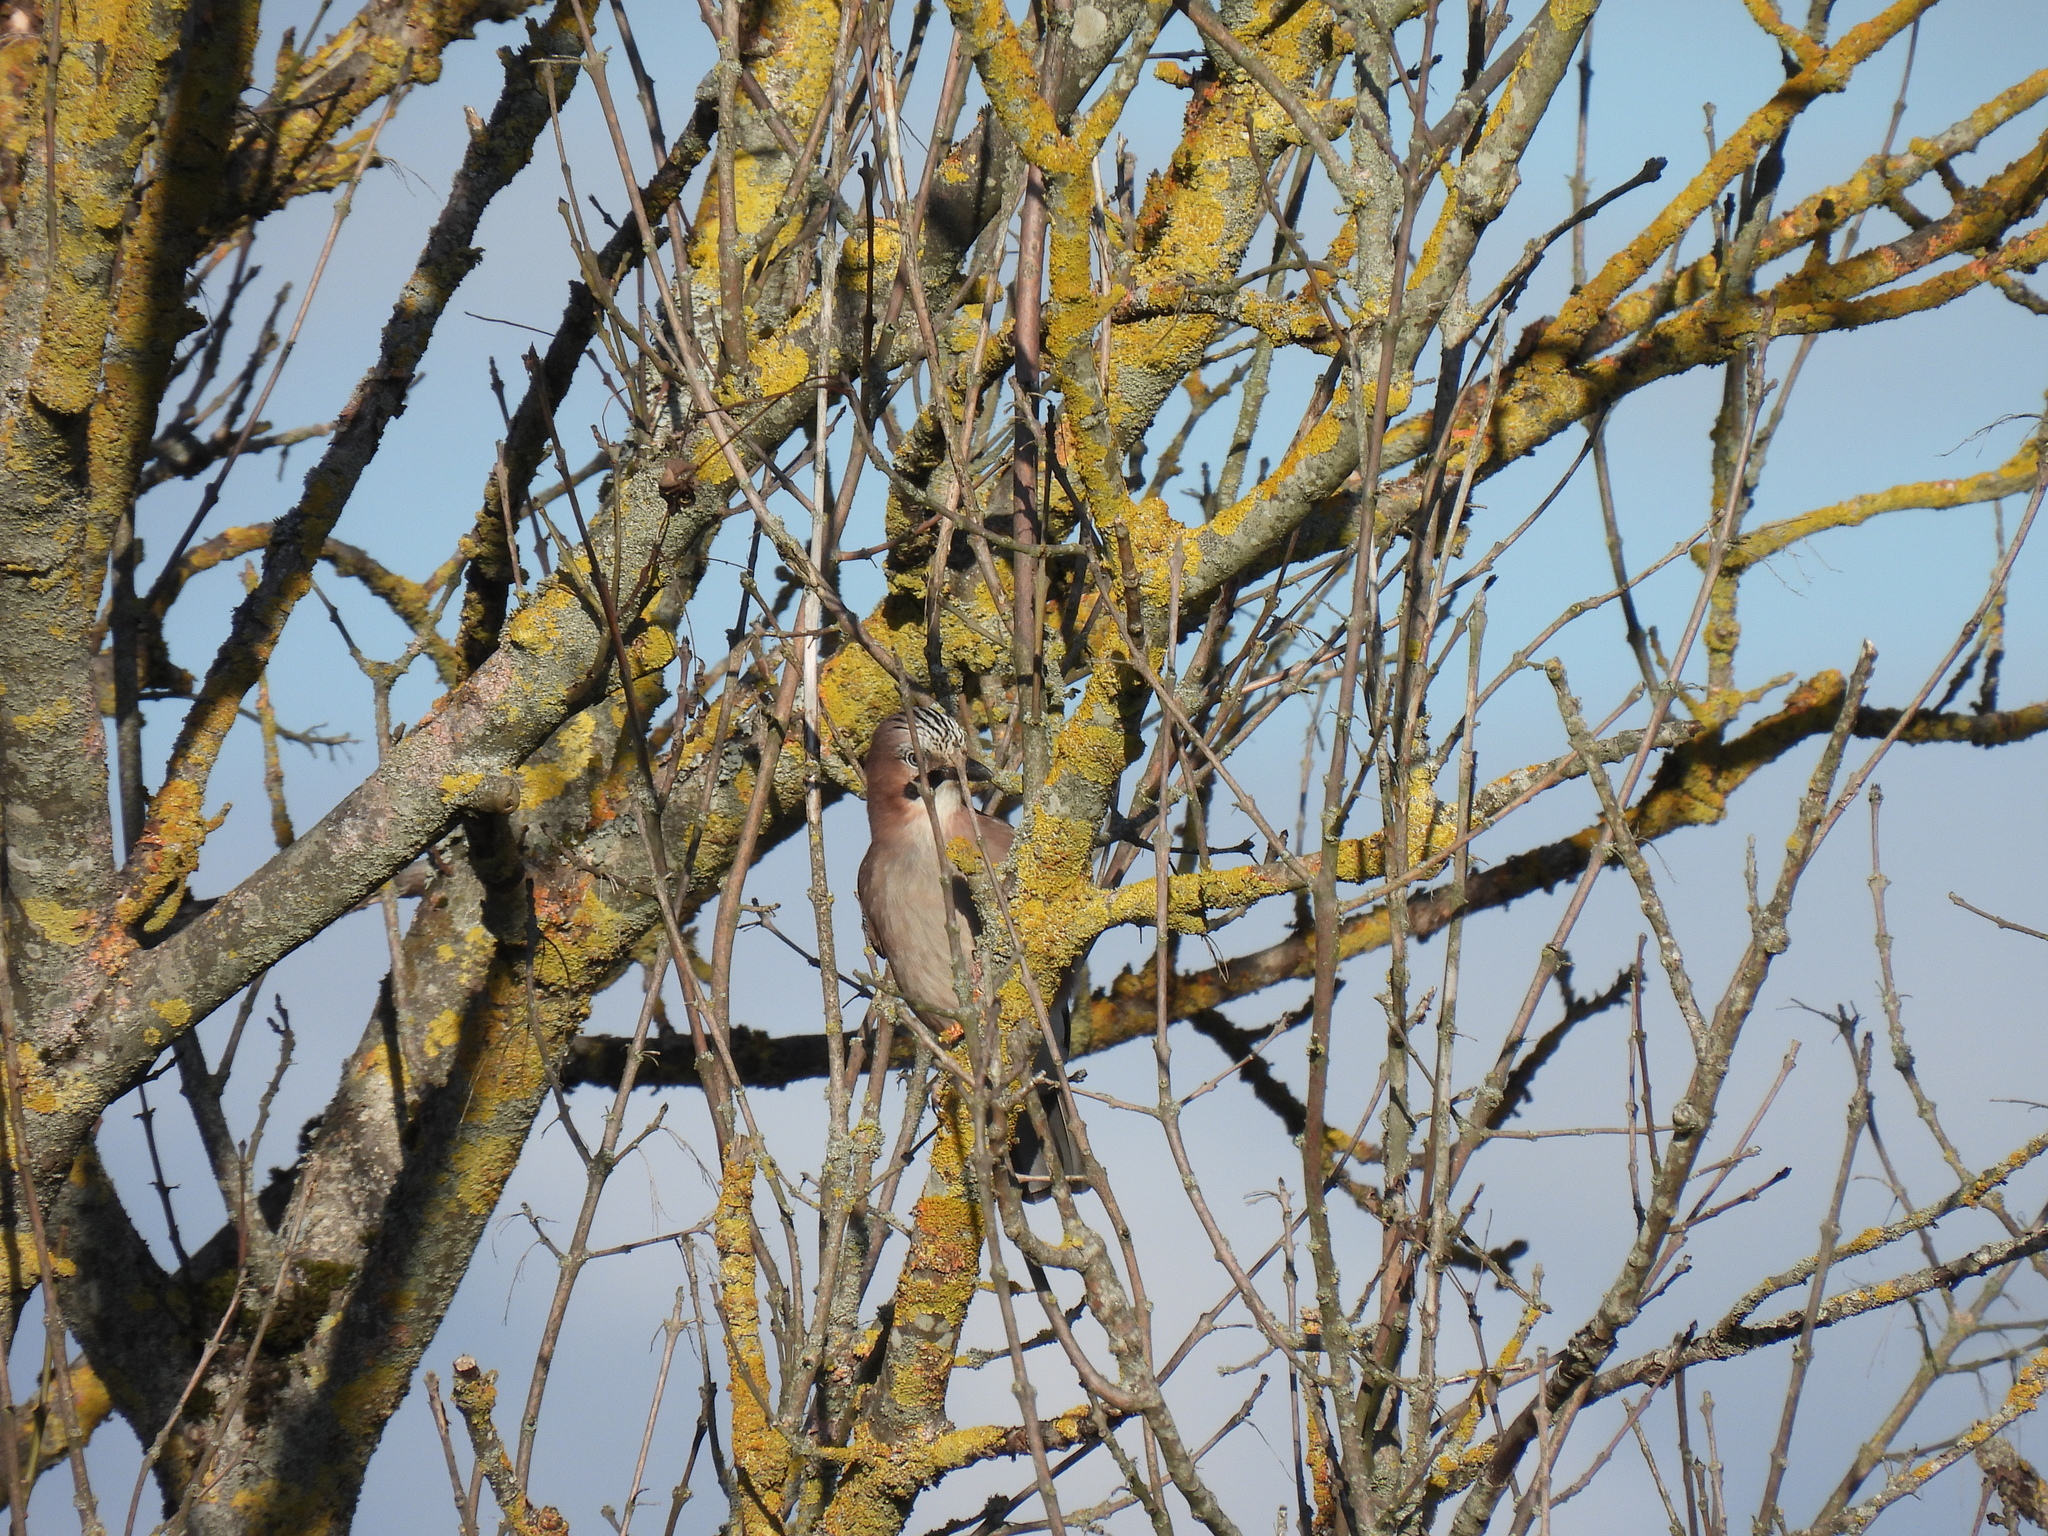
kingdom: Animalia
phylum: Chordata
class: Aves
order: Passeriformes
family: Corvidae
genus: Garrulus
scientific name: Garrulus glandarius
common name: Eurasian jay
